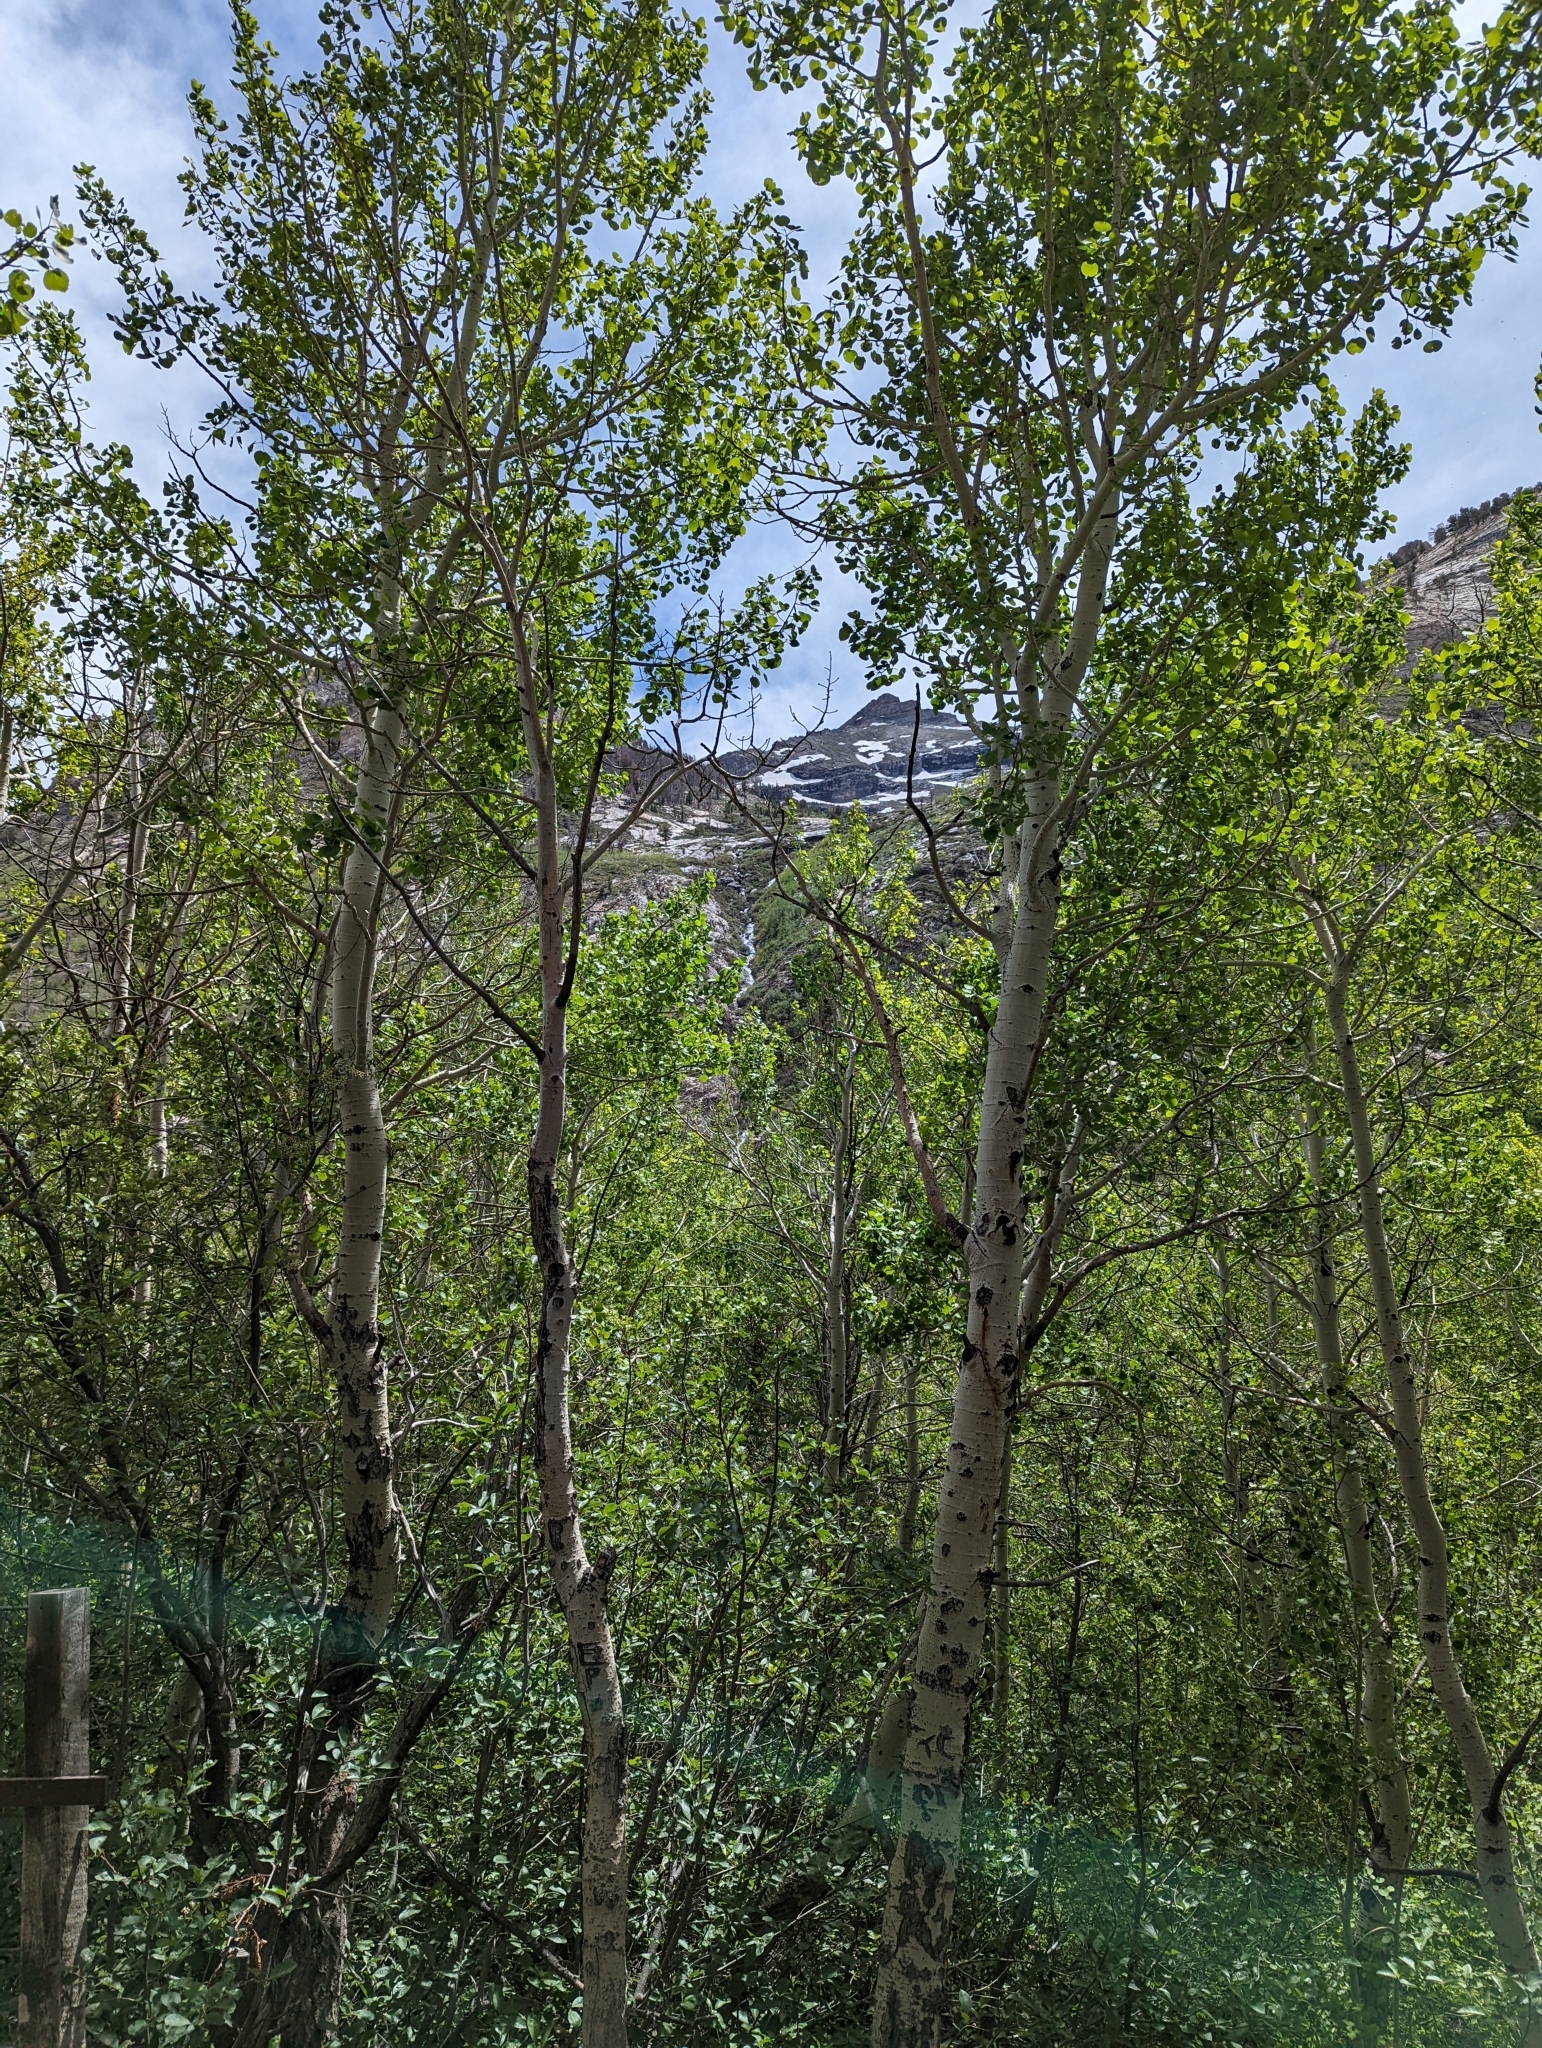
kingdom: Plantae
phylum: Tracheophyta
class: Magnoliopsida
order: Malpighiales
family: Salicaceae
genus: Populus
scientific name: Populus tremuloides
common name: Quaking aspen
